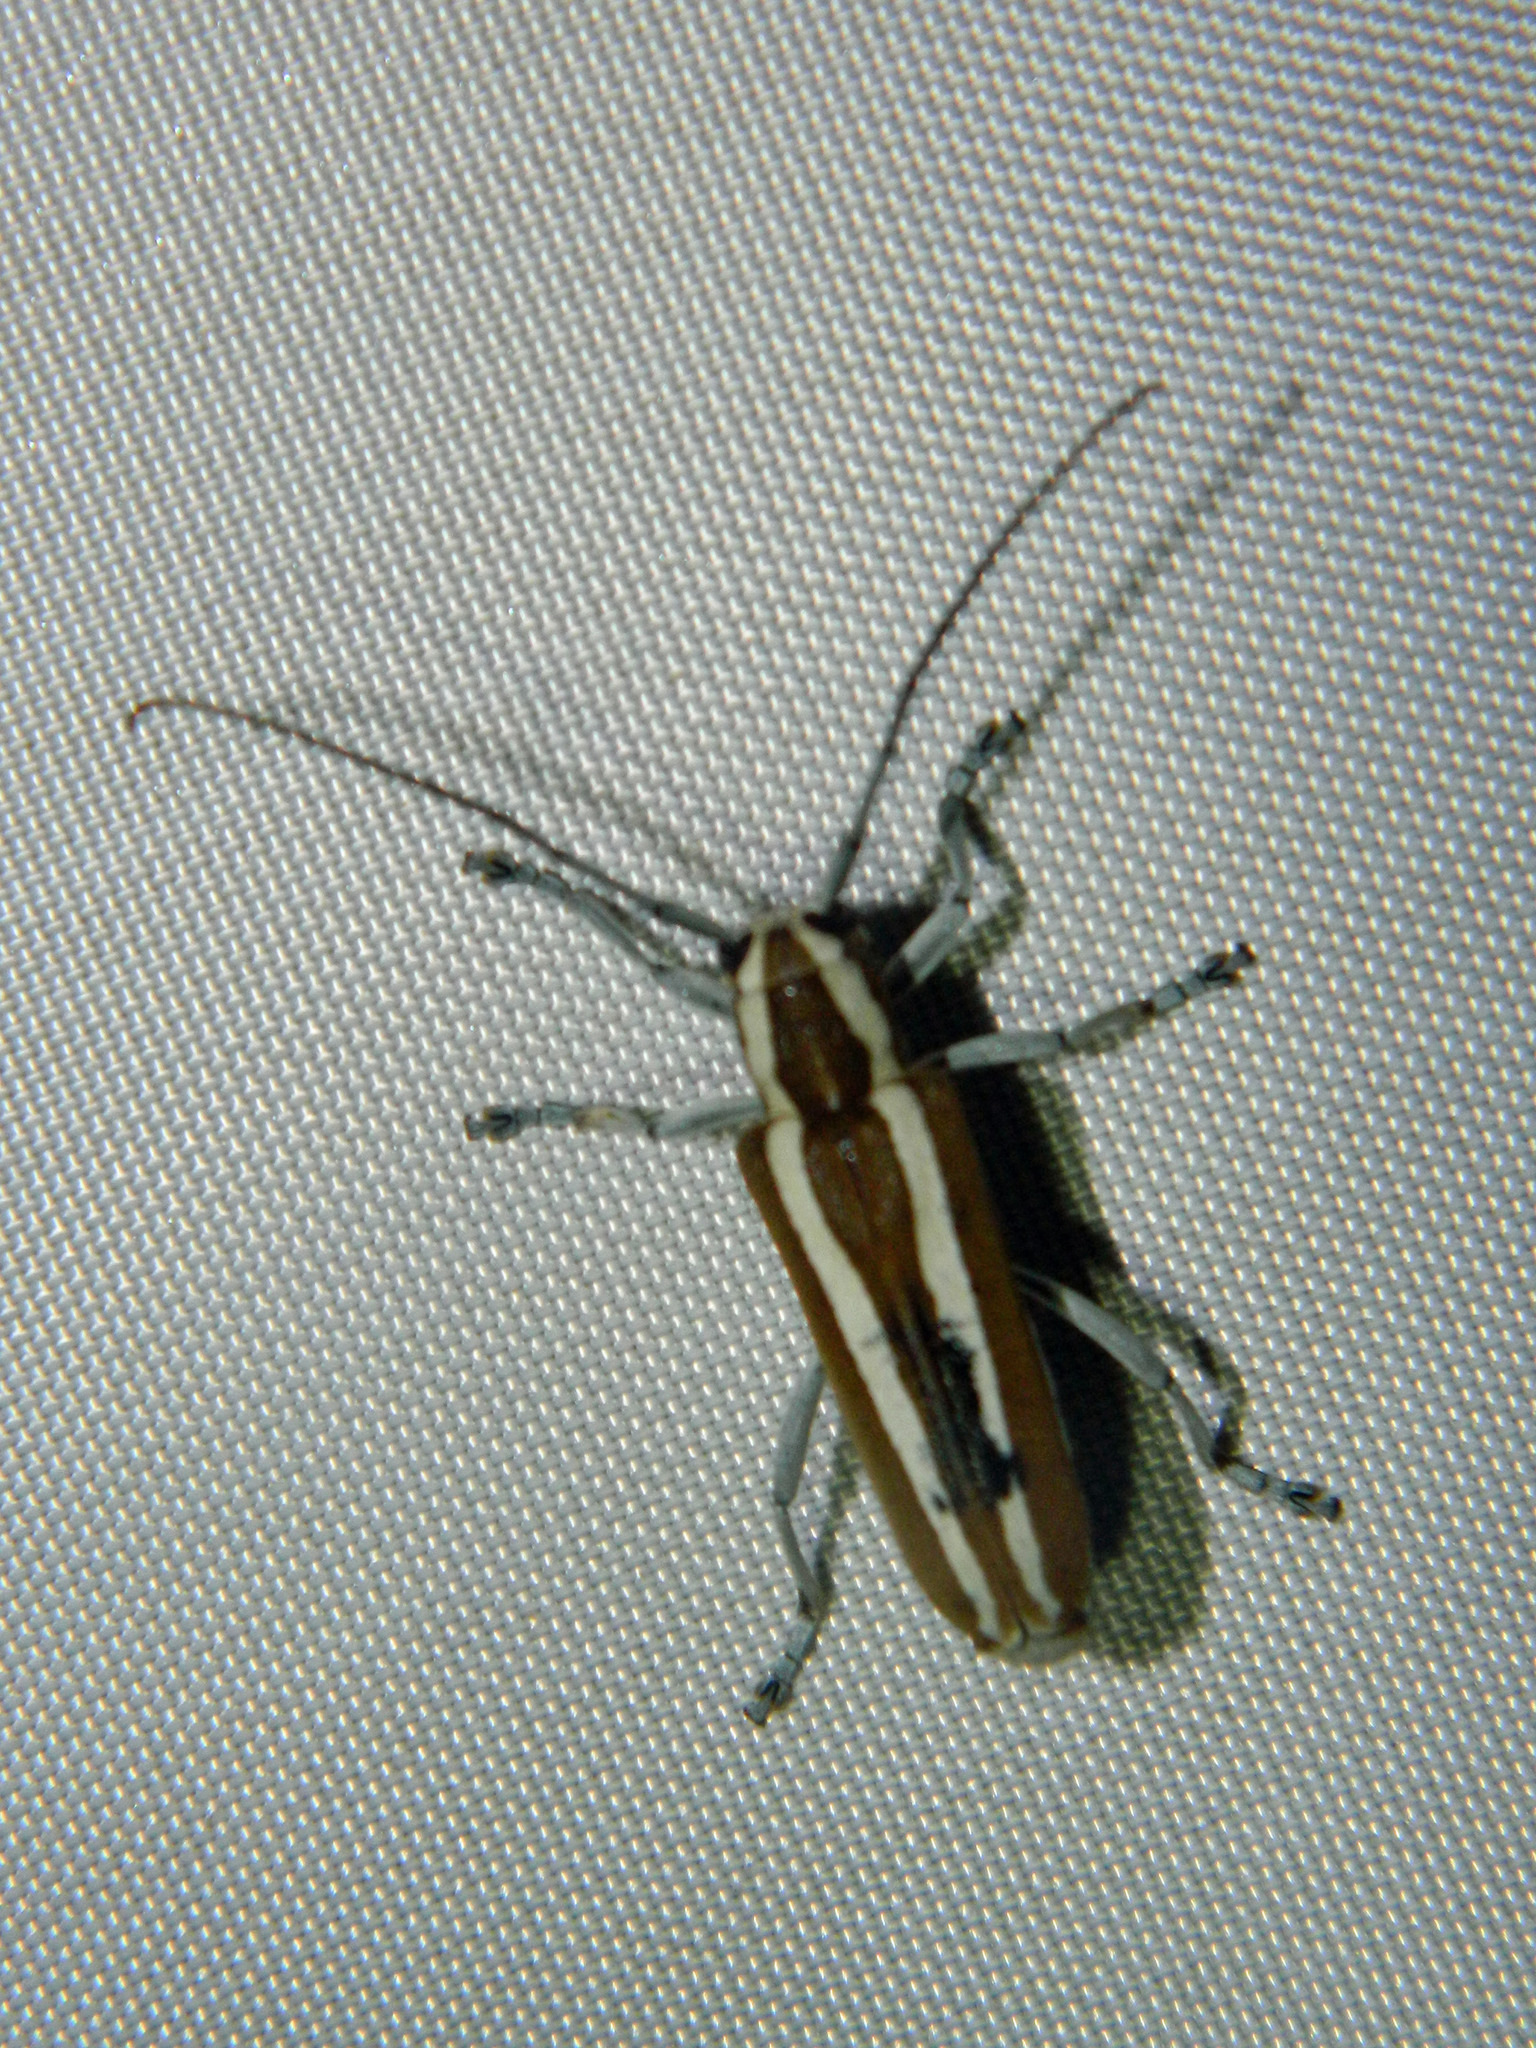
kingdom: Animalia
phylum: Arthropoda
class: Insecta
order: Coleoptera
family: Cerambycidae
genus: Saperda
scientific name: Saperda candida
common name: Round-headed borer
